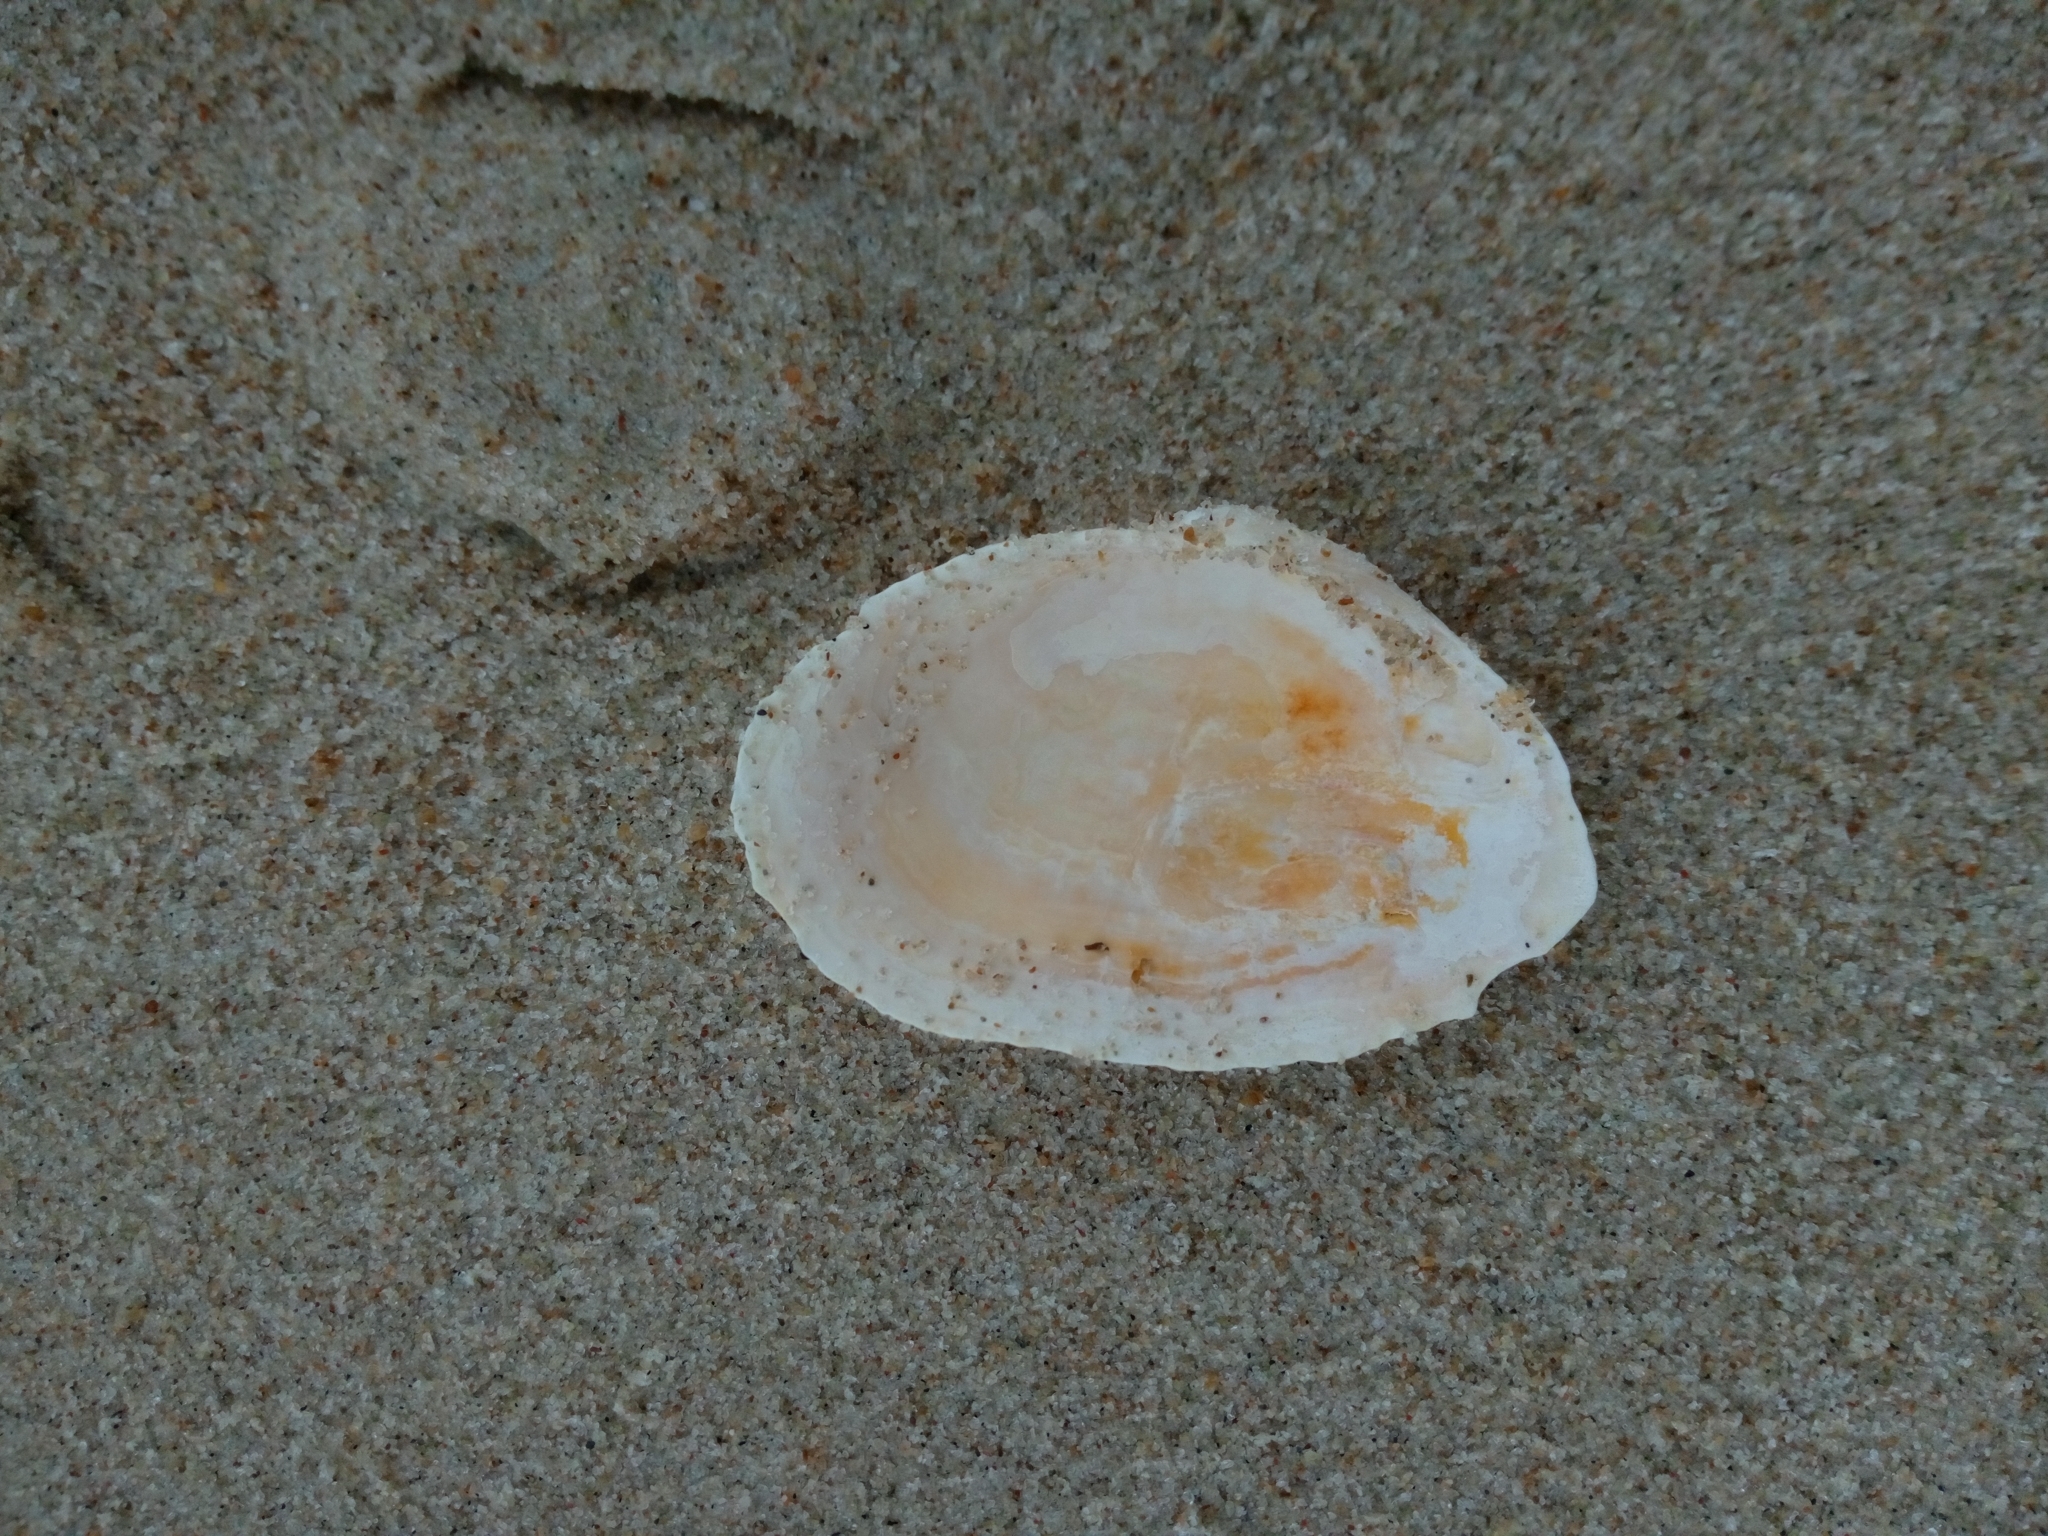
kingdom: Animalia
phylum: Mollusca
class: Bivalvia
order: Myida
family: Myidae
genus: Mya
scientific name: Mya arenaria
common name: Soft-shelled clam
